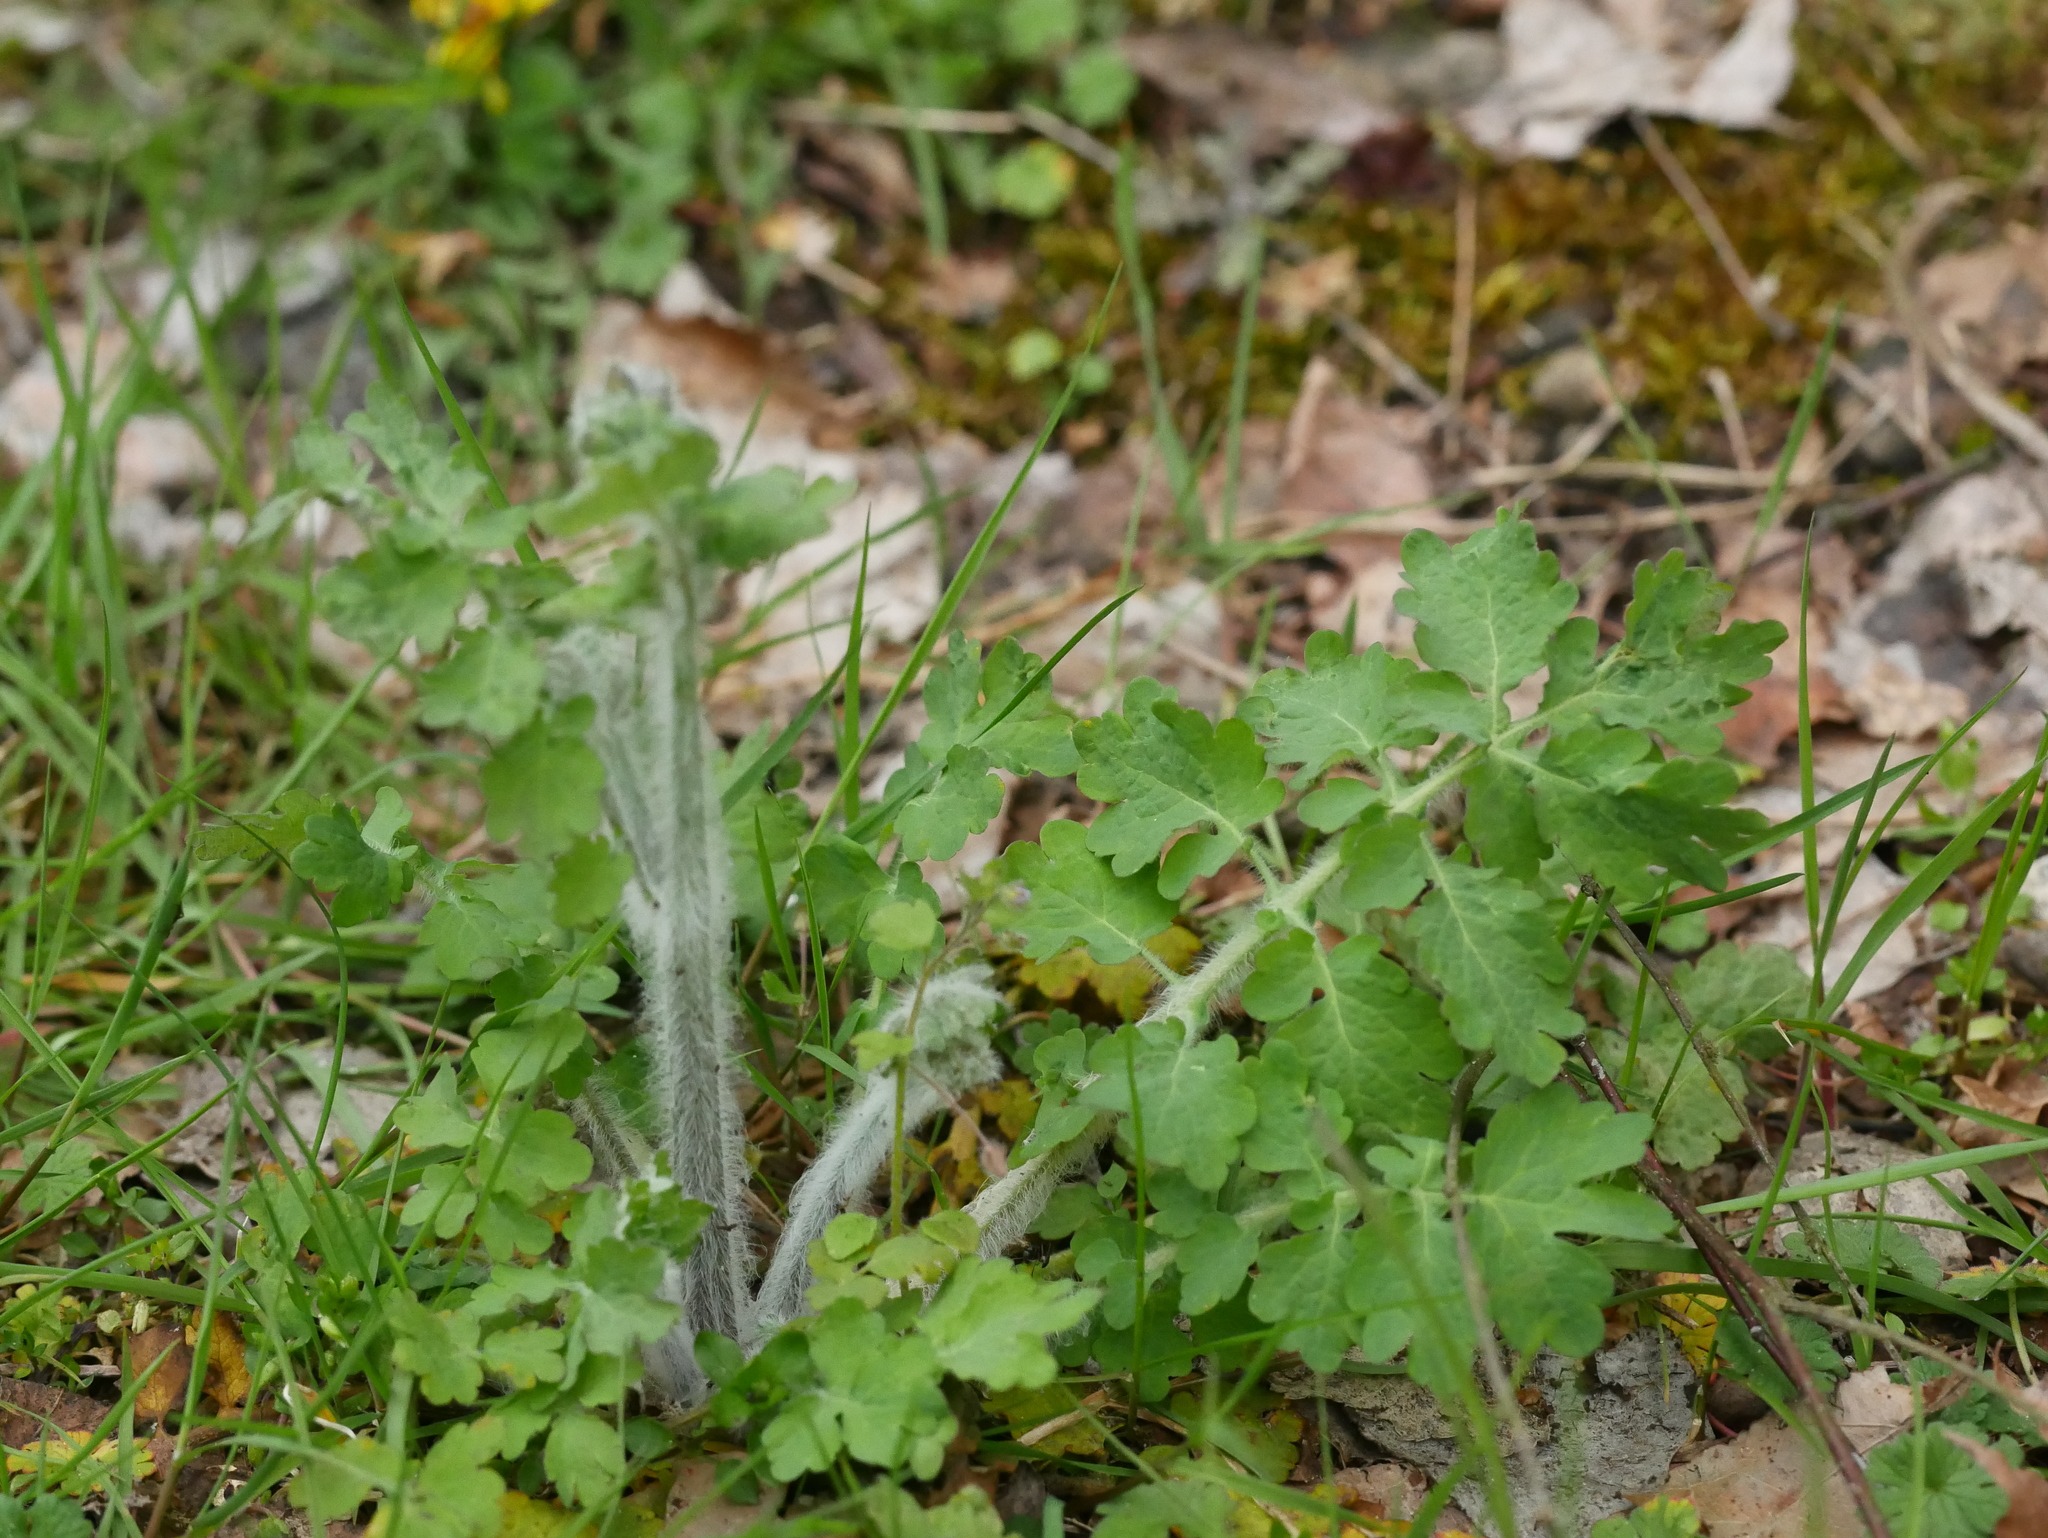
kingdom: Plantae
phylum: Tracheophyta
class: Magnoliopsida
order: Ranunculales
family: Papaveraceae
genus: Chelidonium
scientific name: Chelidonium majus
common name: Greater celandine
